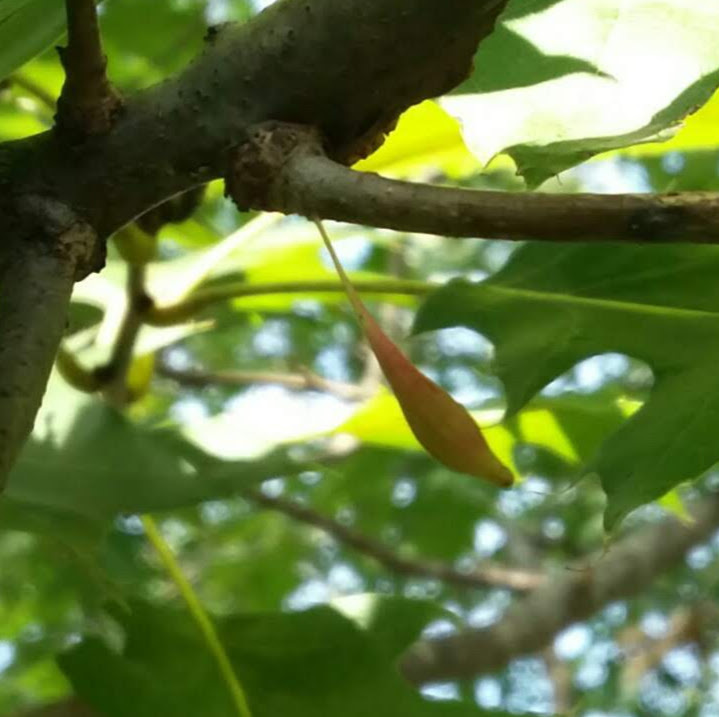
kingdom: Animalia
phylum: Arthropoda
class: Insecta
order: Hymenoptera
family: Cynipidae
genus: Callirhytis
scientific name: Callirhytis
